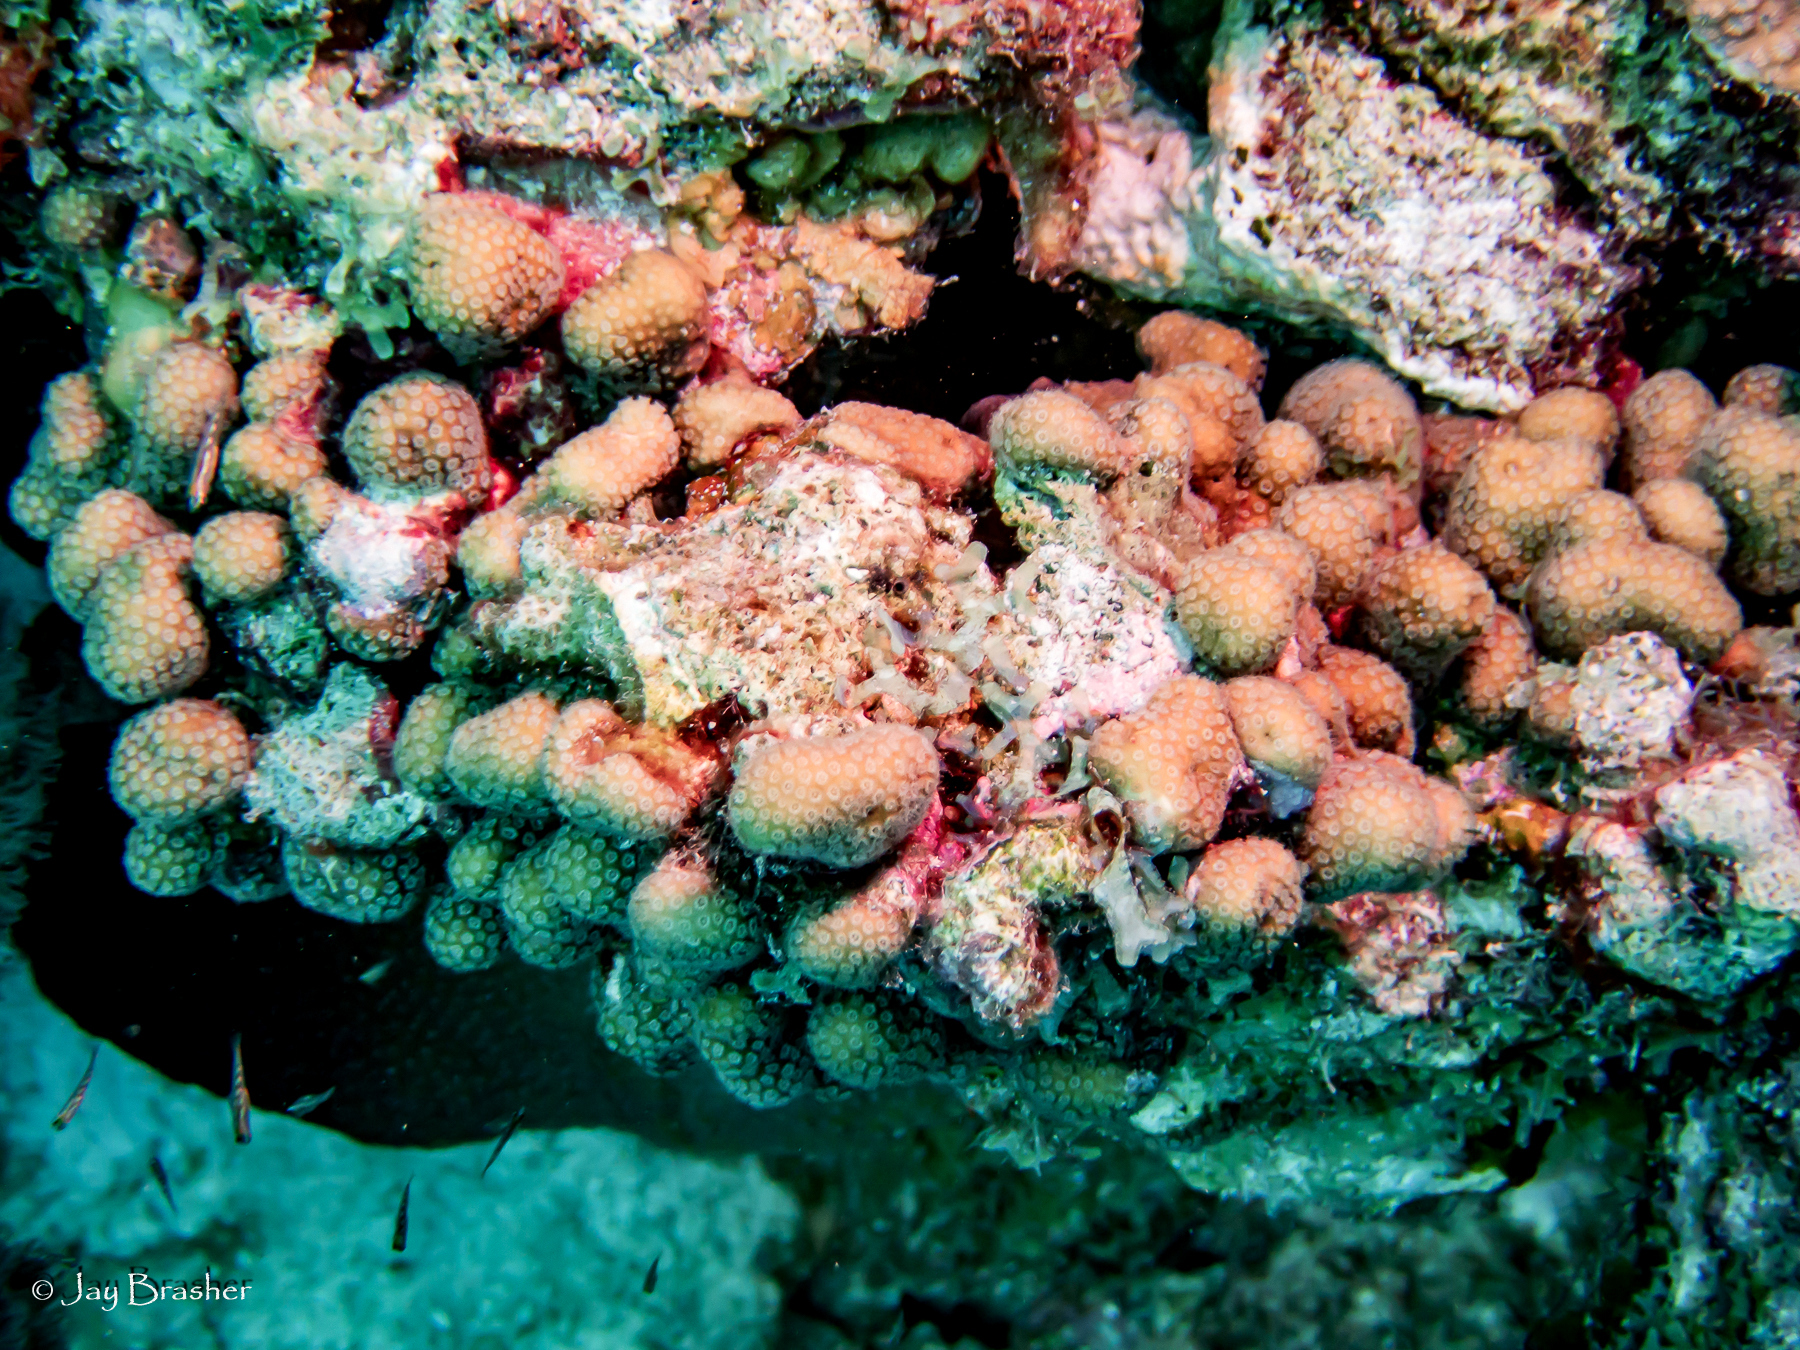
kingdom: Animalia
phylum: Cnidaria
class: Anthozoa
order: Scleractinia
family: Pocilloporidae
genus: Madracis
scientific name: Madracis decactis
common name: Ten-ray star coral
